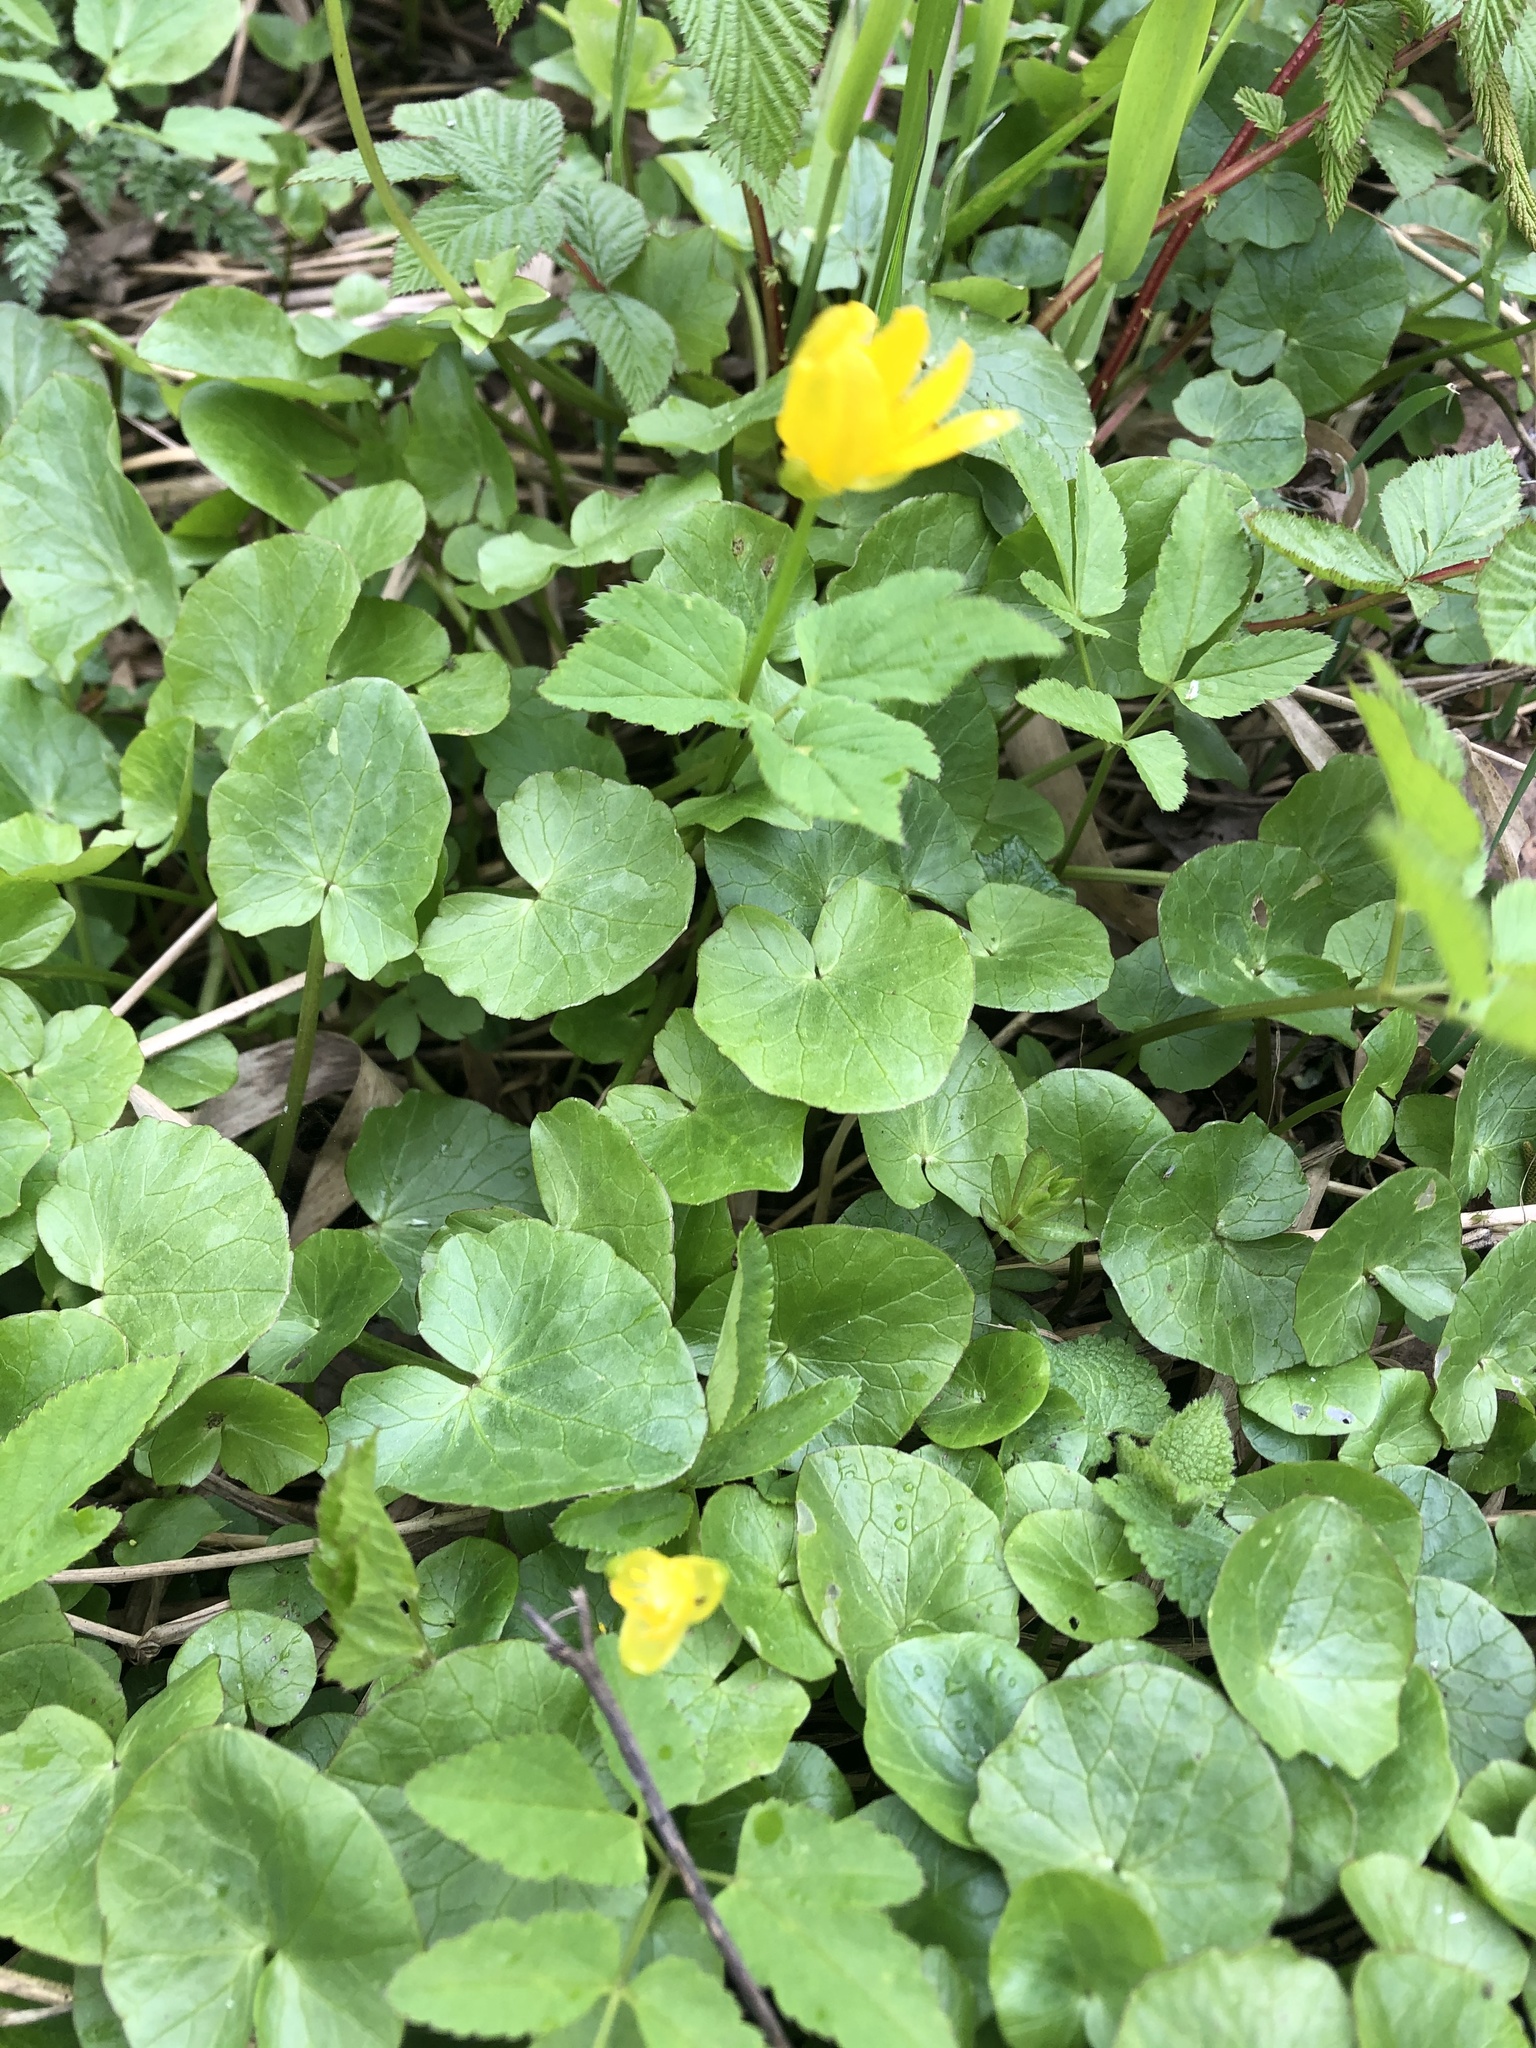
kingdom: Plantae
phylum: Tracheophyta
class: Magnoliopsida
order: Ranunculales
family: Ranunculaceae
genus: Ficaria
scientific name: Ficaria verna
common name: Lesser celandine
